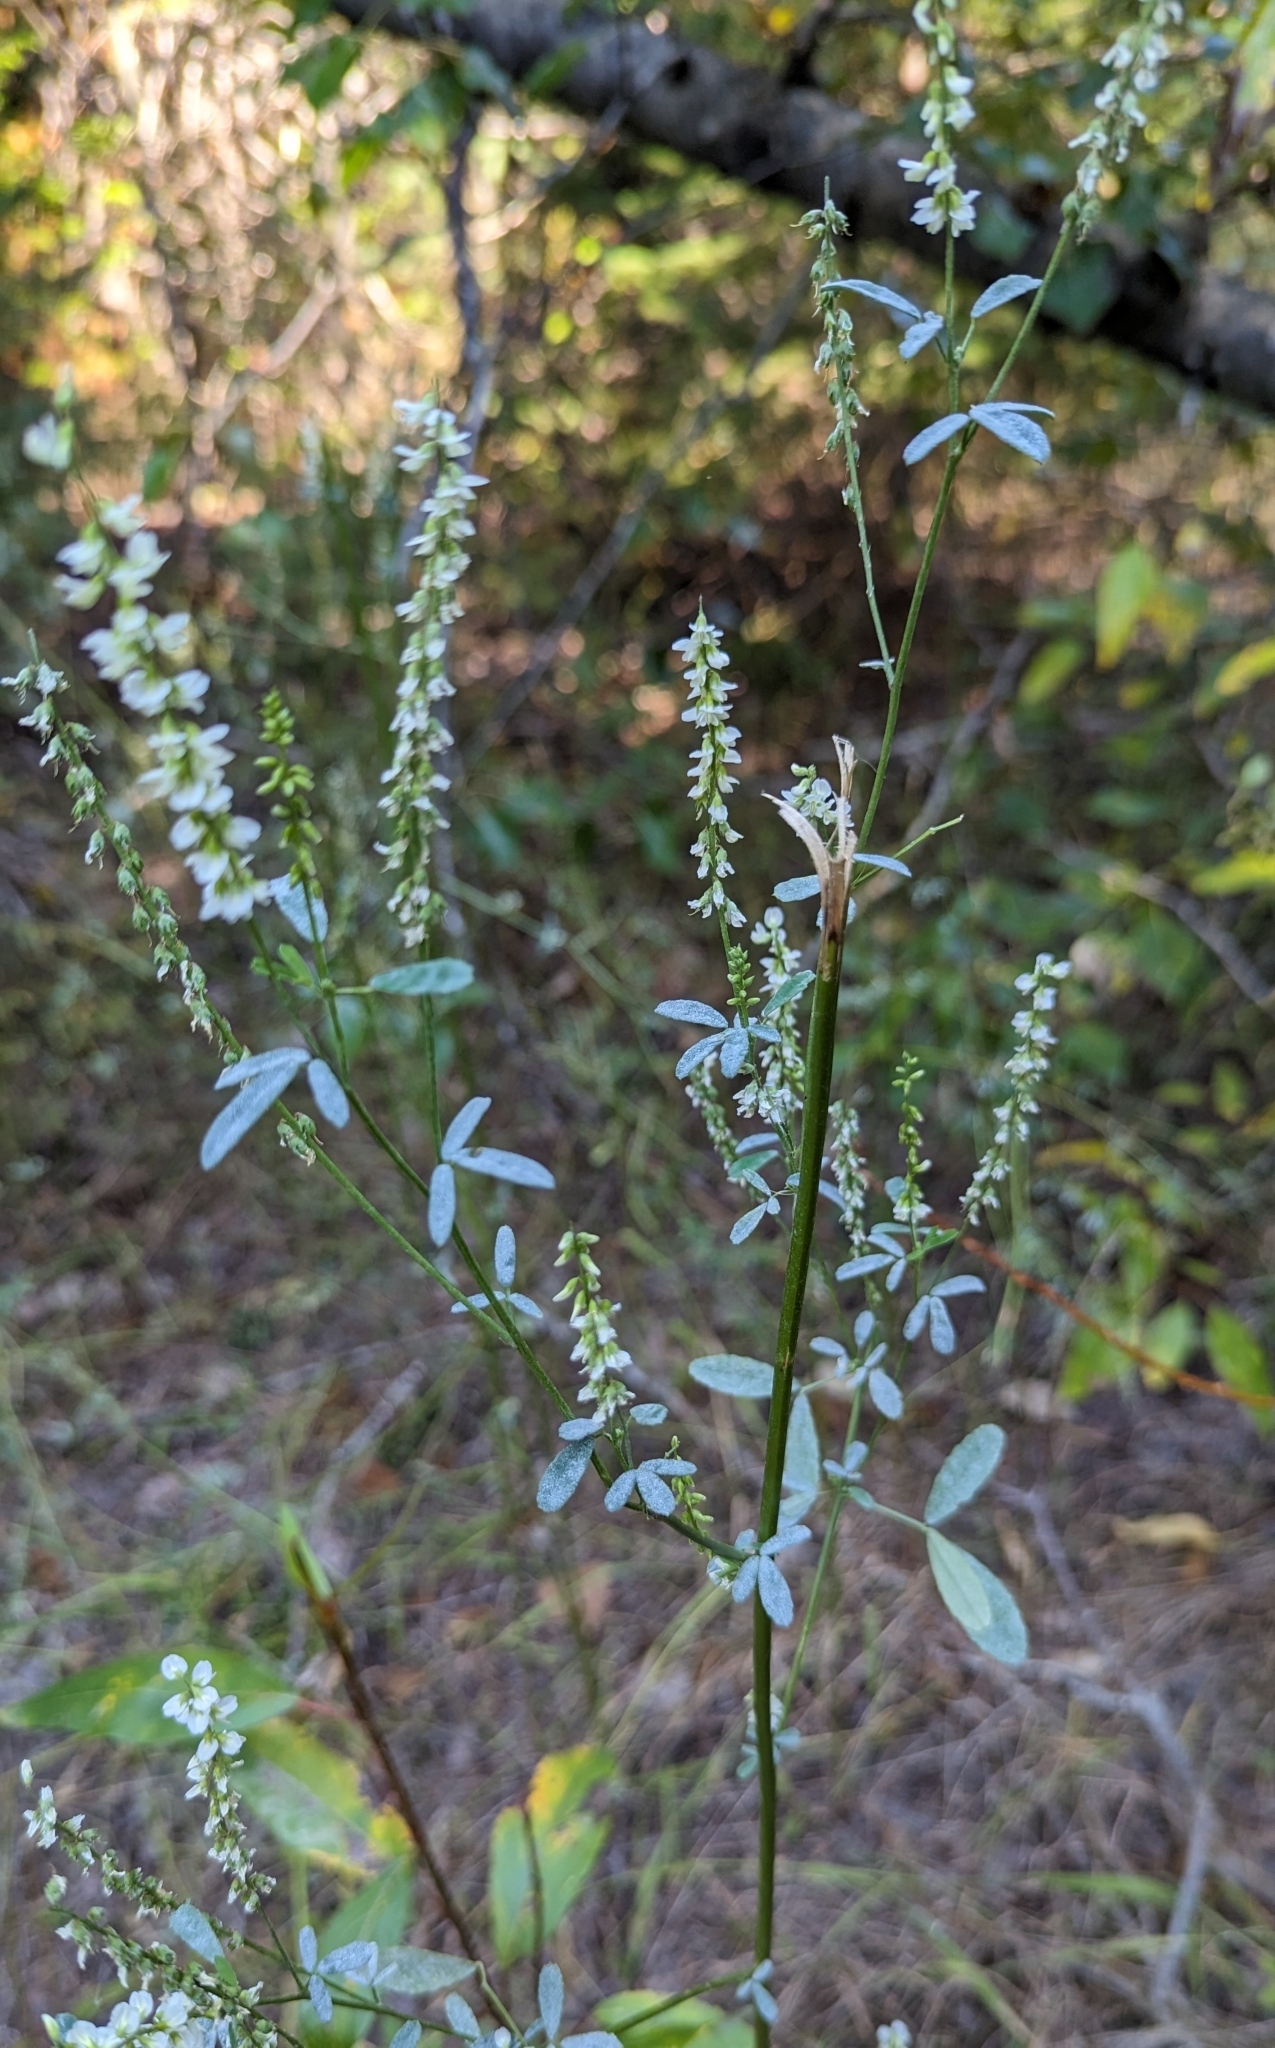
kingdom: Plantae
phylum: Tracheophyta
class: Magnoliopsida
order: Fabales
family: Fabaceae
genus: Melilotus
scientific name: Melilotus albus
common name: White melilot
